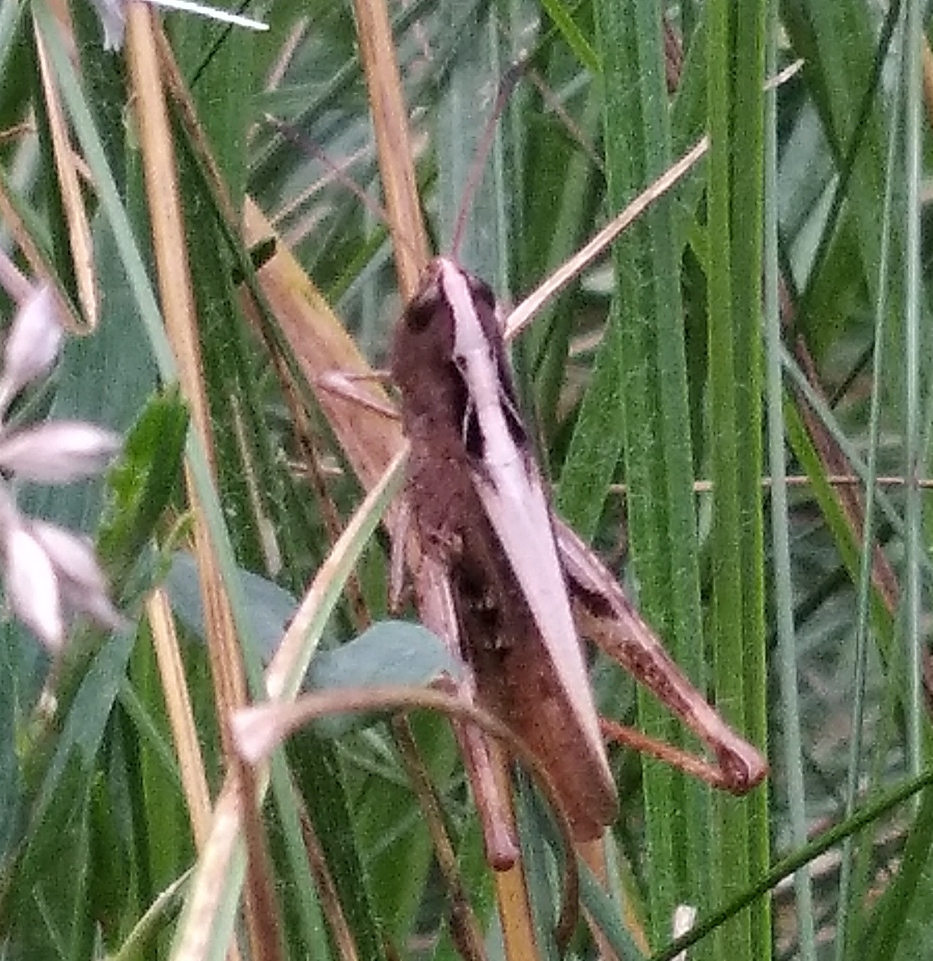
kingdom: Animalia
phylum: Arthropoda
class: Insecta
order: Orthoptera
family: Acrididae
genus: Gomphocerippus
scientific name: Gomphocerippus rufus
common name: Rufous grasshopper
